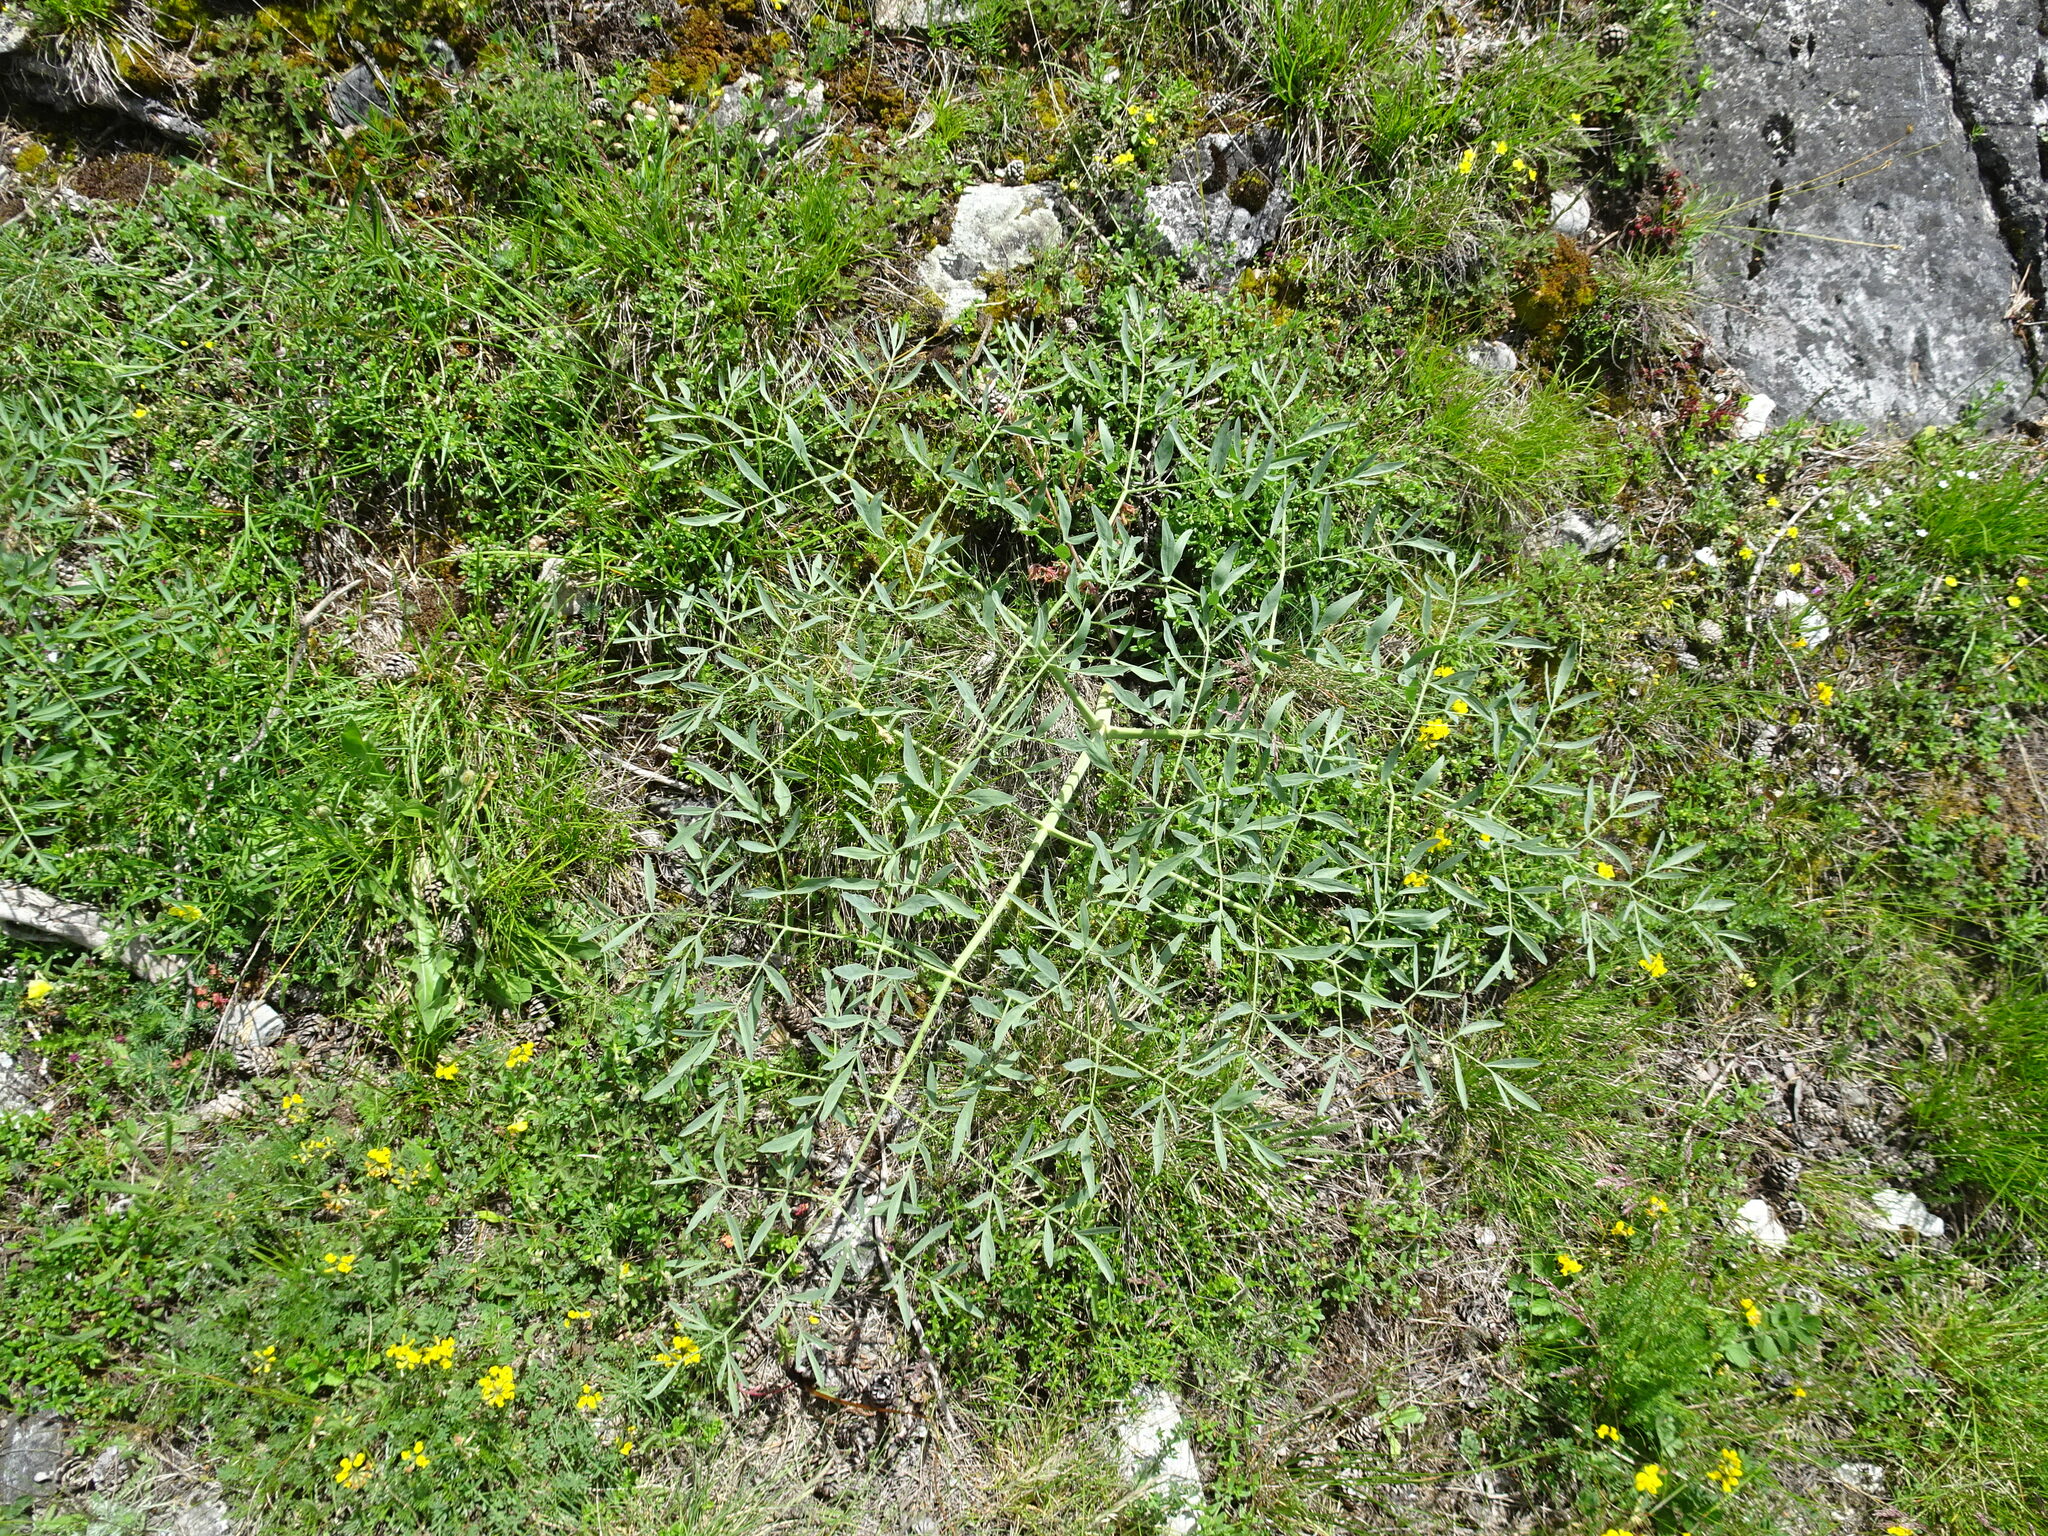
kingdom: Plantae
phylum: Tracheophyta
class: Magnoliopsida
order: Apiales
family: Apiaceae
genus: Siler
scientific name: Siler montanum
